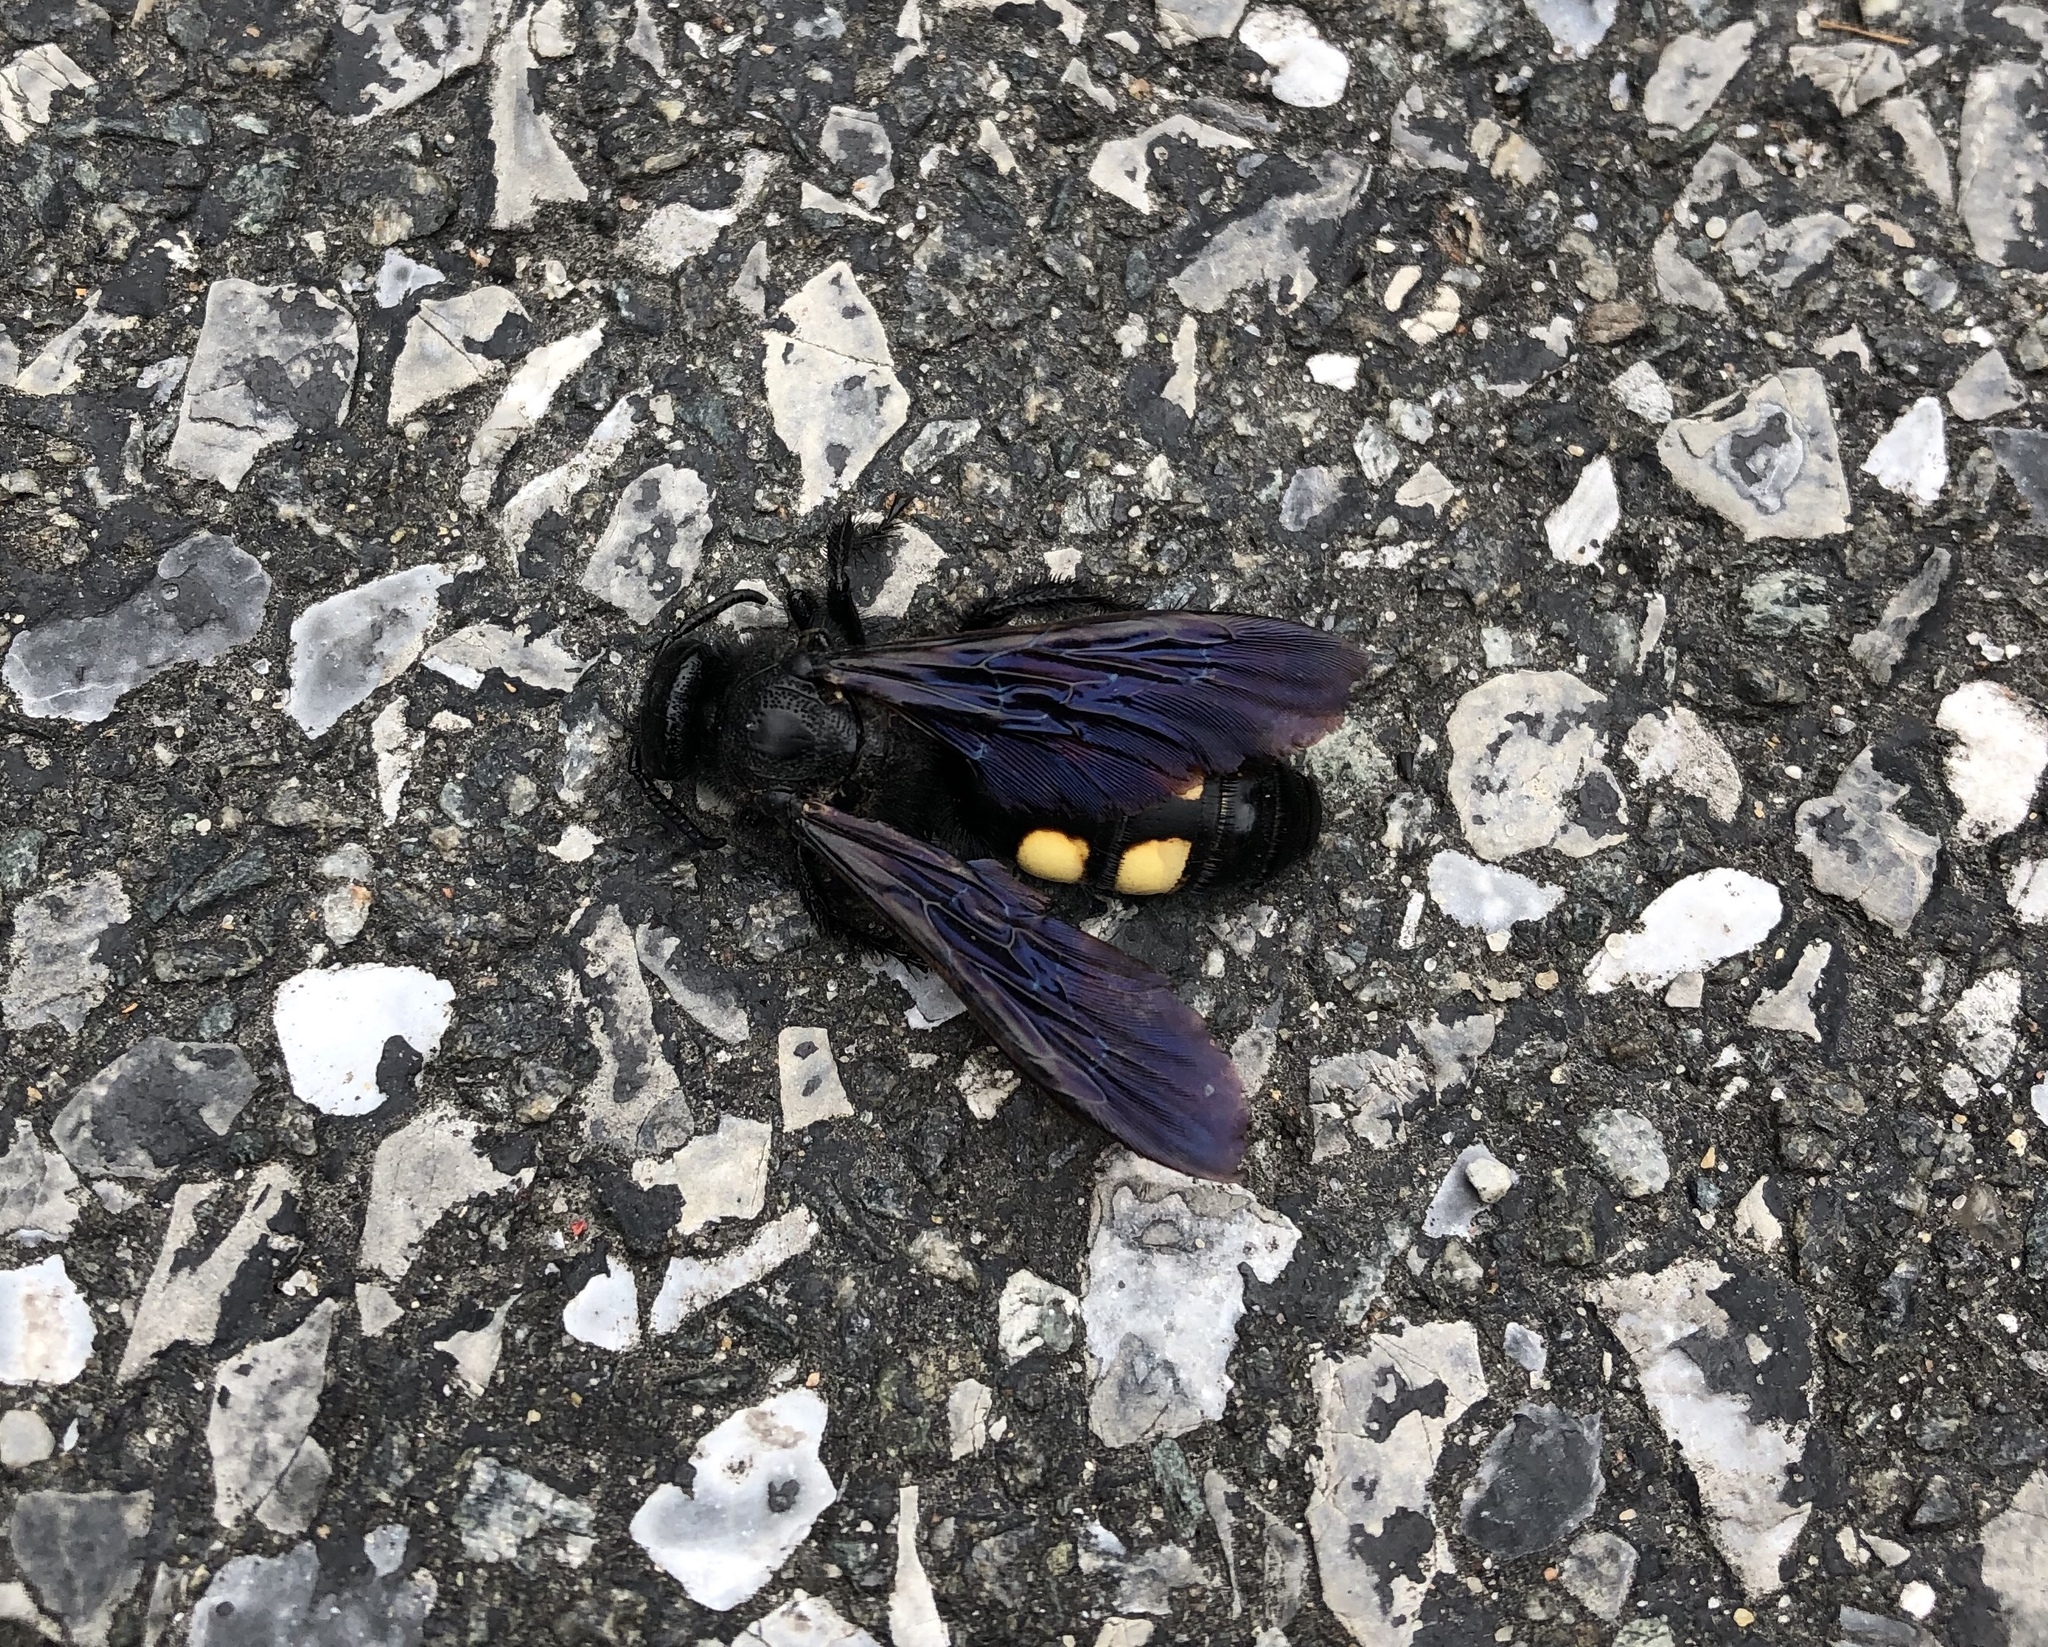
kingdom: Animalia
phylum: Arthropoda
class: Insecta
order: Hymenoptera
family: Scoliidae
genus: Pygodasis
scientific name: Pygodasis
